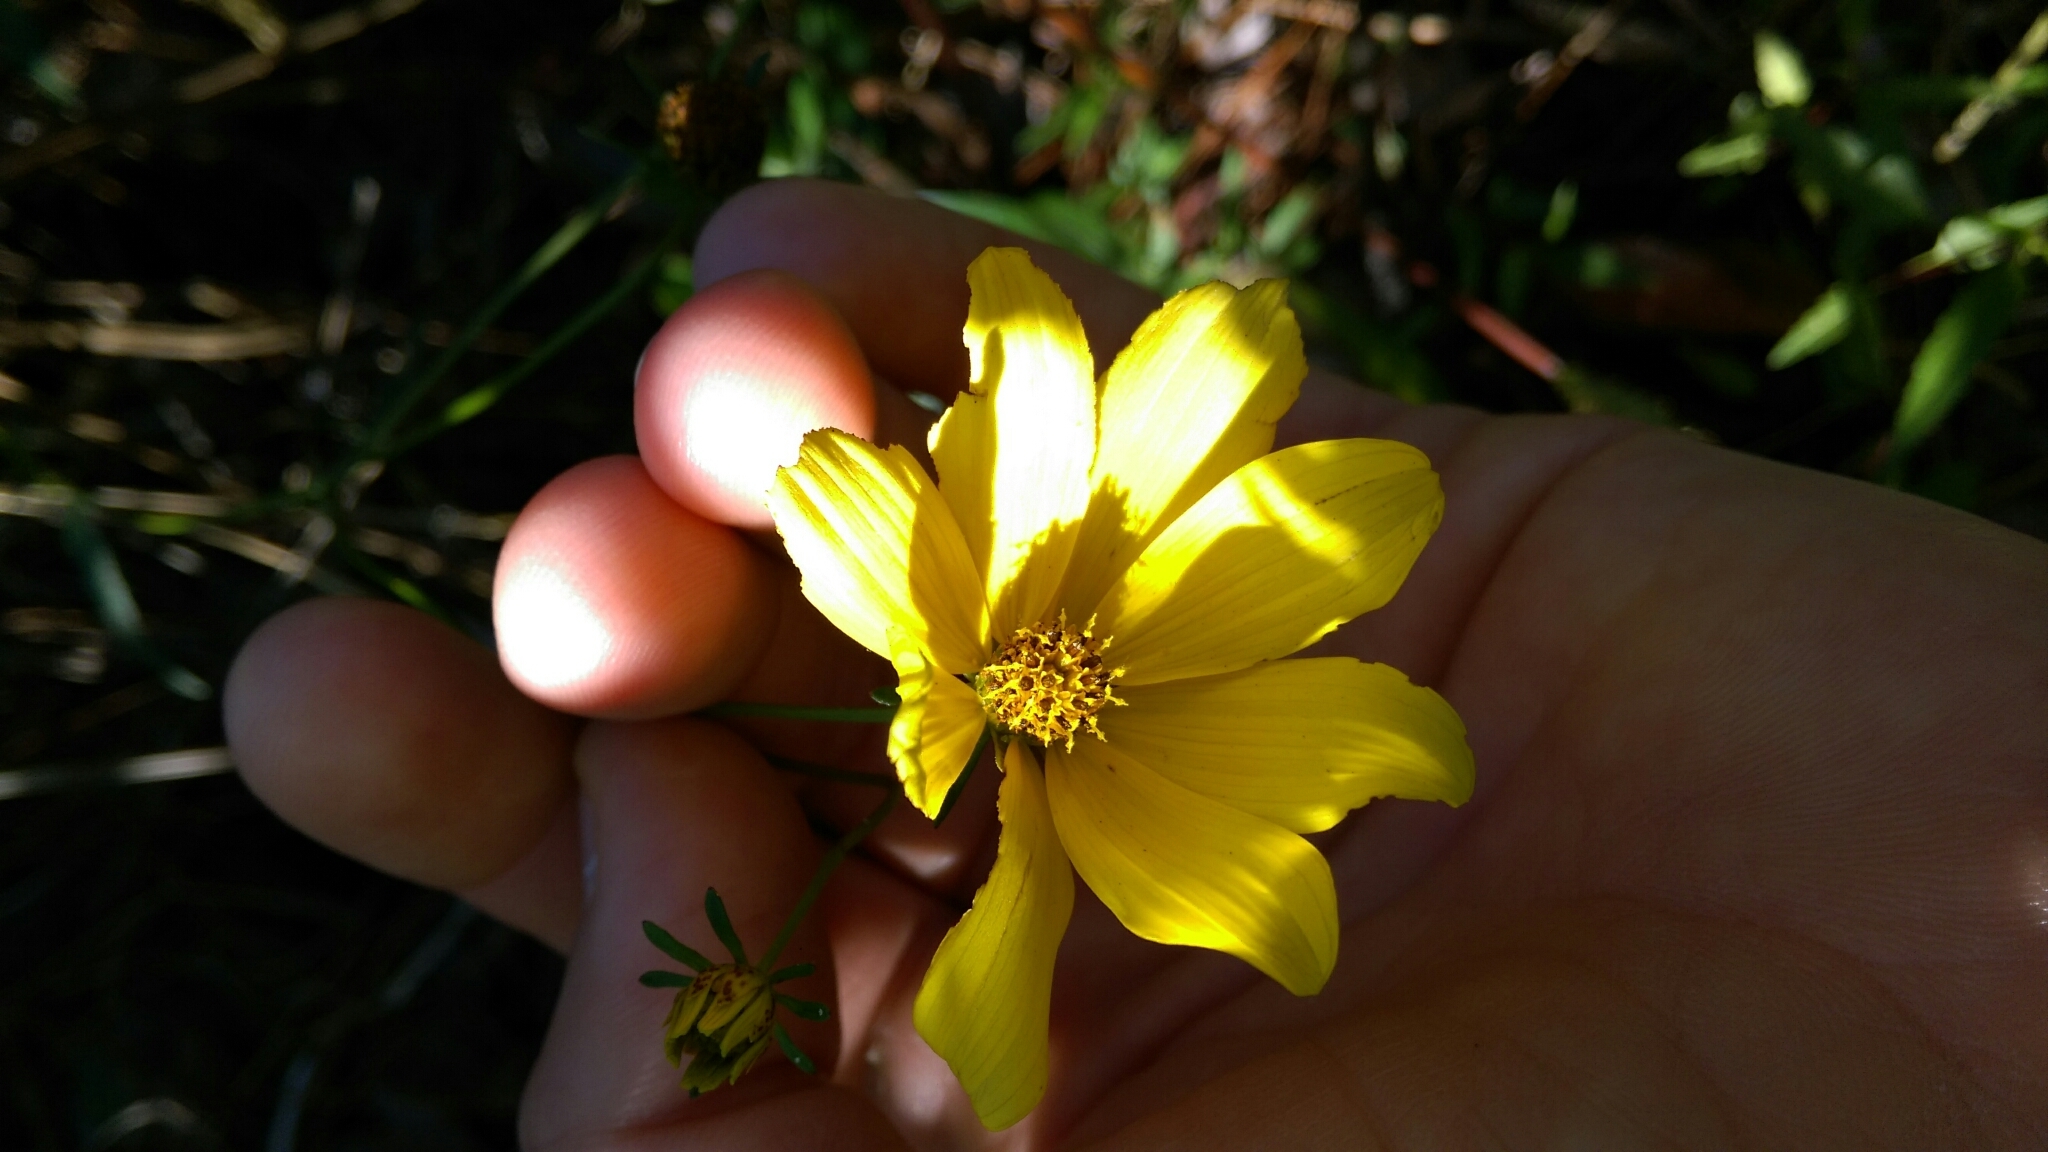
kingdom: Plantae
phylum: Tracheophyta
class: Magnoliopsida
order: Asterales
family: Asteraceae
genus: Bidens
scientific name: Bidens mitis
